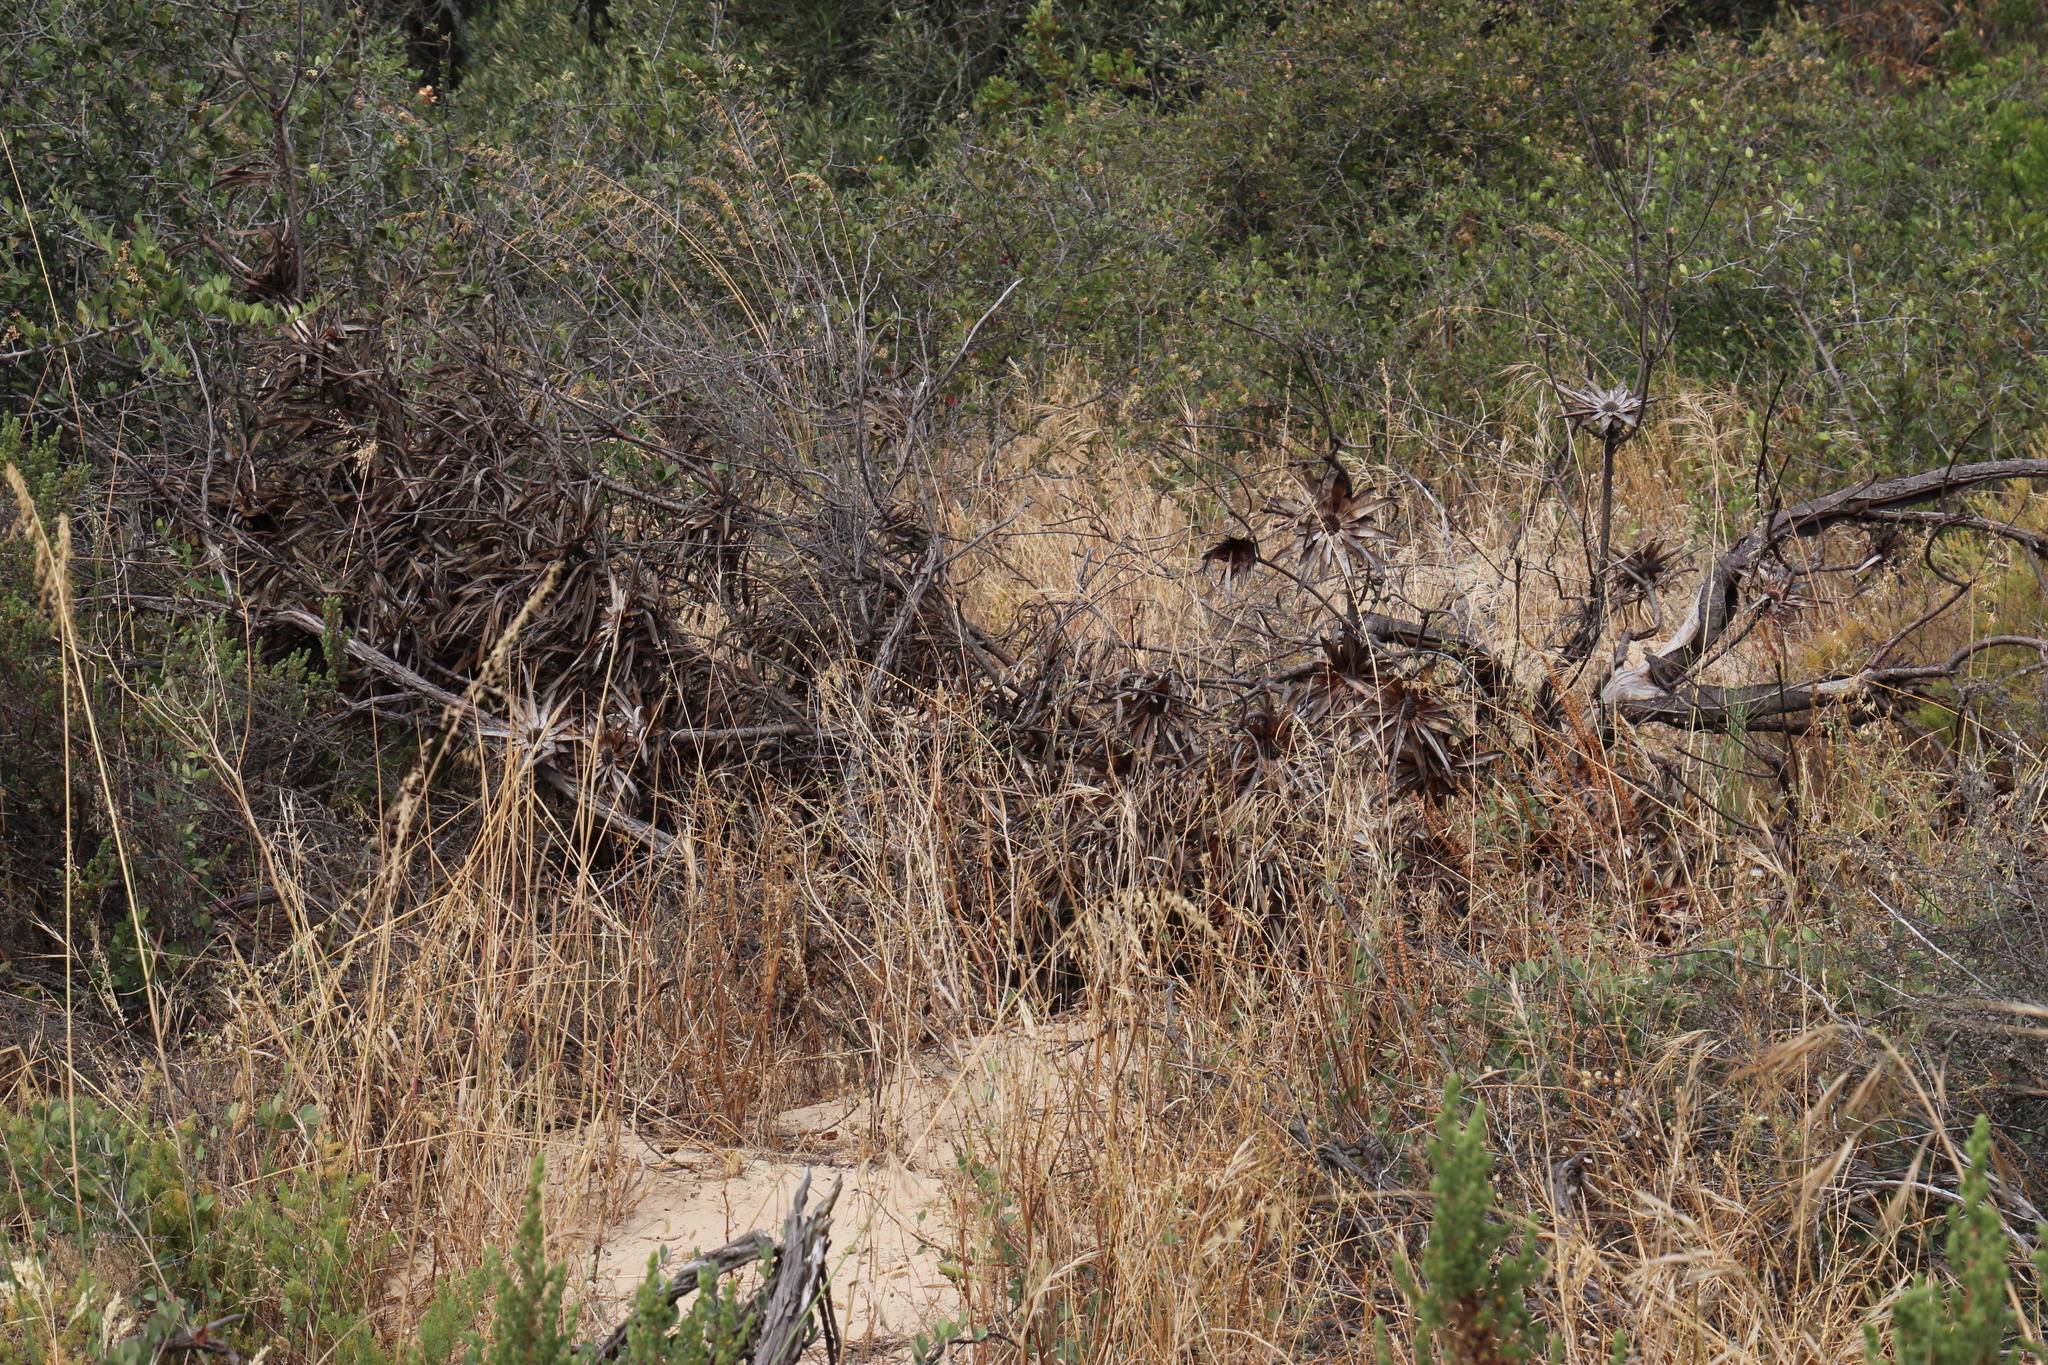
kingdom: Plantae
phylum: Tracheophyta
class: Magnoliopsida
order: Proteales
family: Proteaceae
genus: Protea
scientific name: Protea repens
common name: Sugarbush
